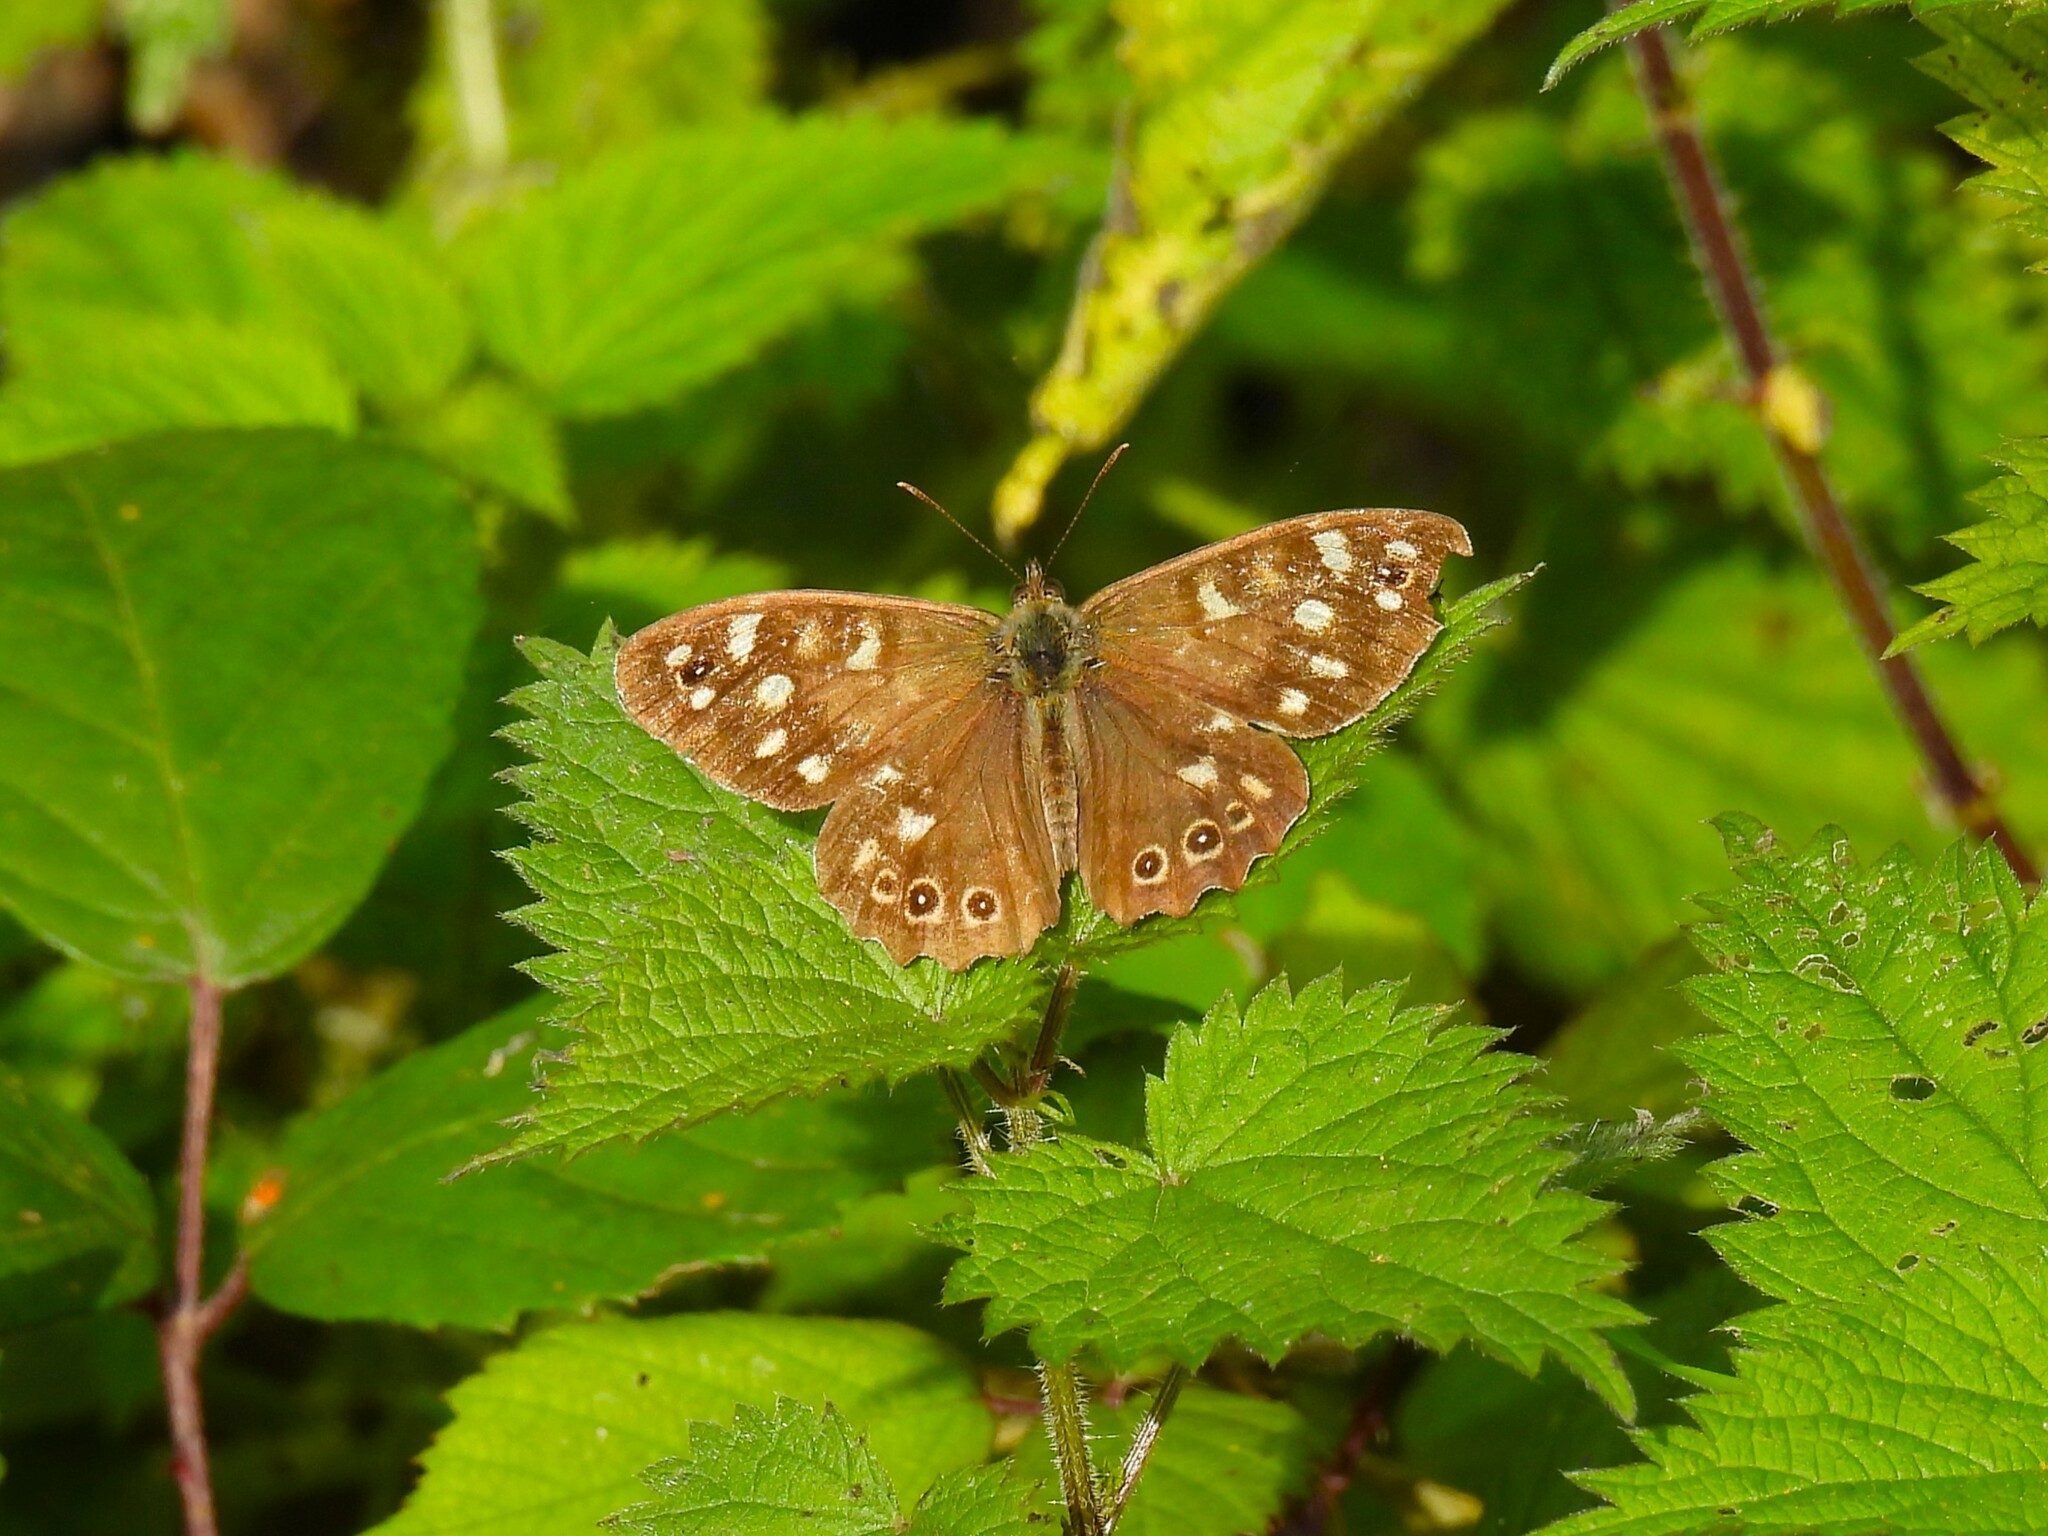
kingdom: Animalia
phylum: Arthropoda
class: Insecta
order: Lepidoptera
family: Nymphalidae
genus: Pararge
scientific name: Pararge aegeria
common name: Speckled wood
